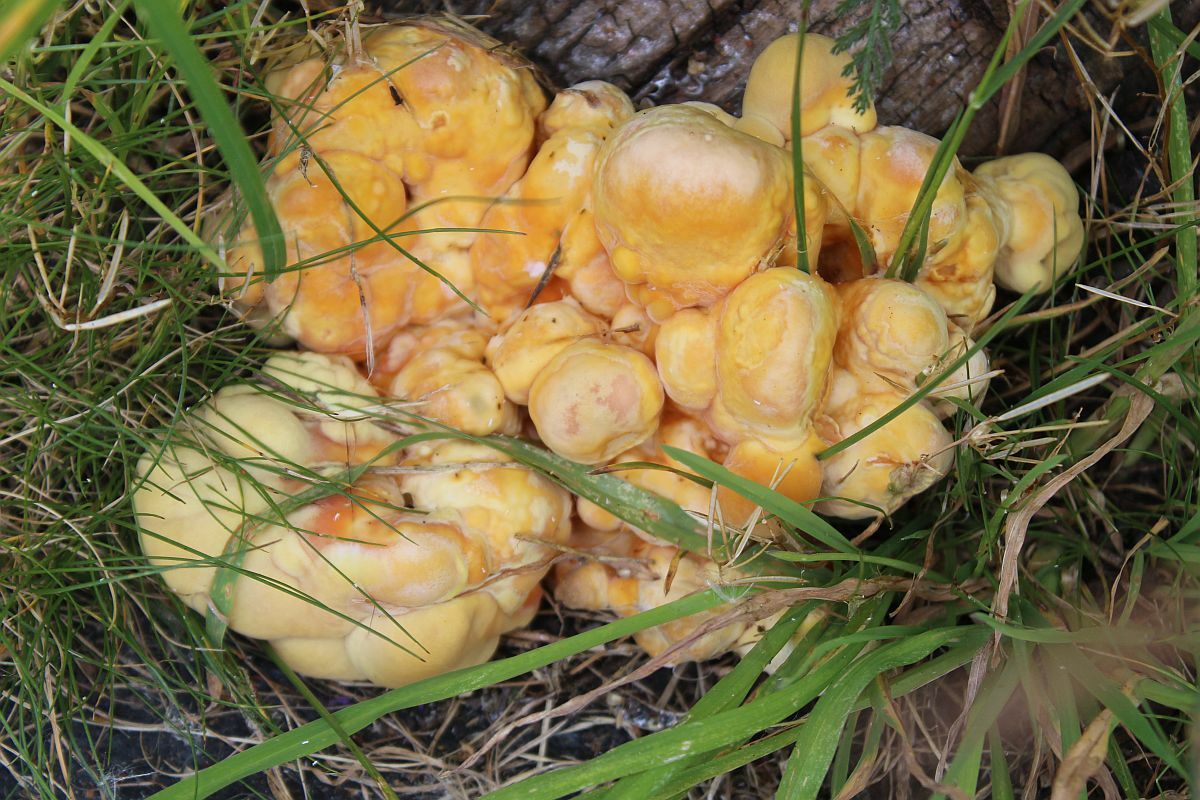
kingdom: Fungi
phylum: Basidiomycota
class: Agaricomycetes
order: Polyporales
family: Laetiporaceae
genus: Laetiporus
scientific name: Laetiporus sulphureus
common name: Chicken of the woods
